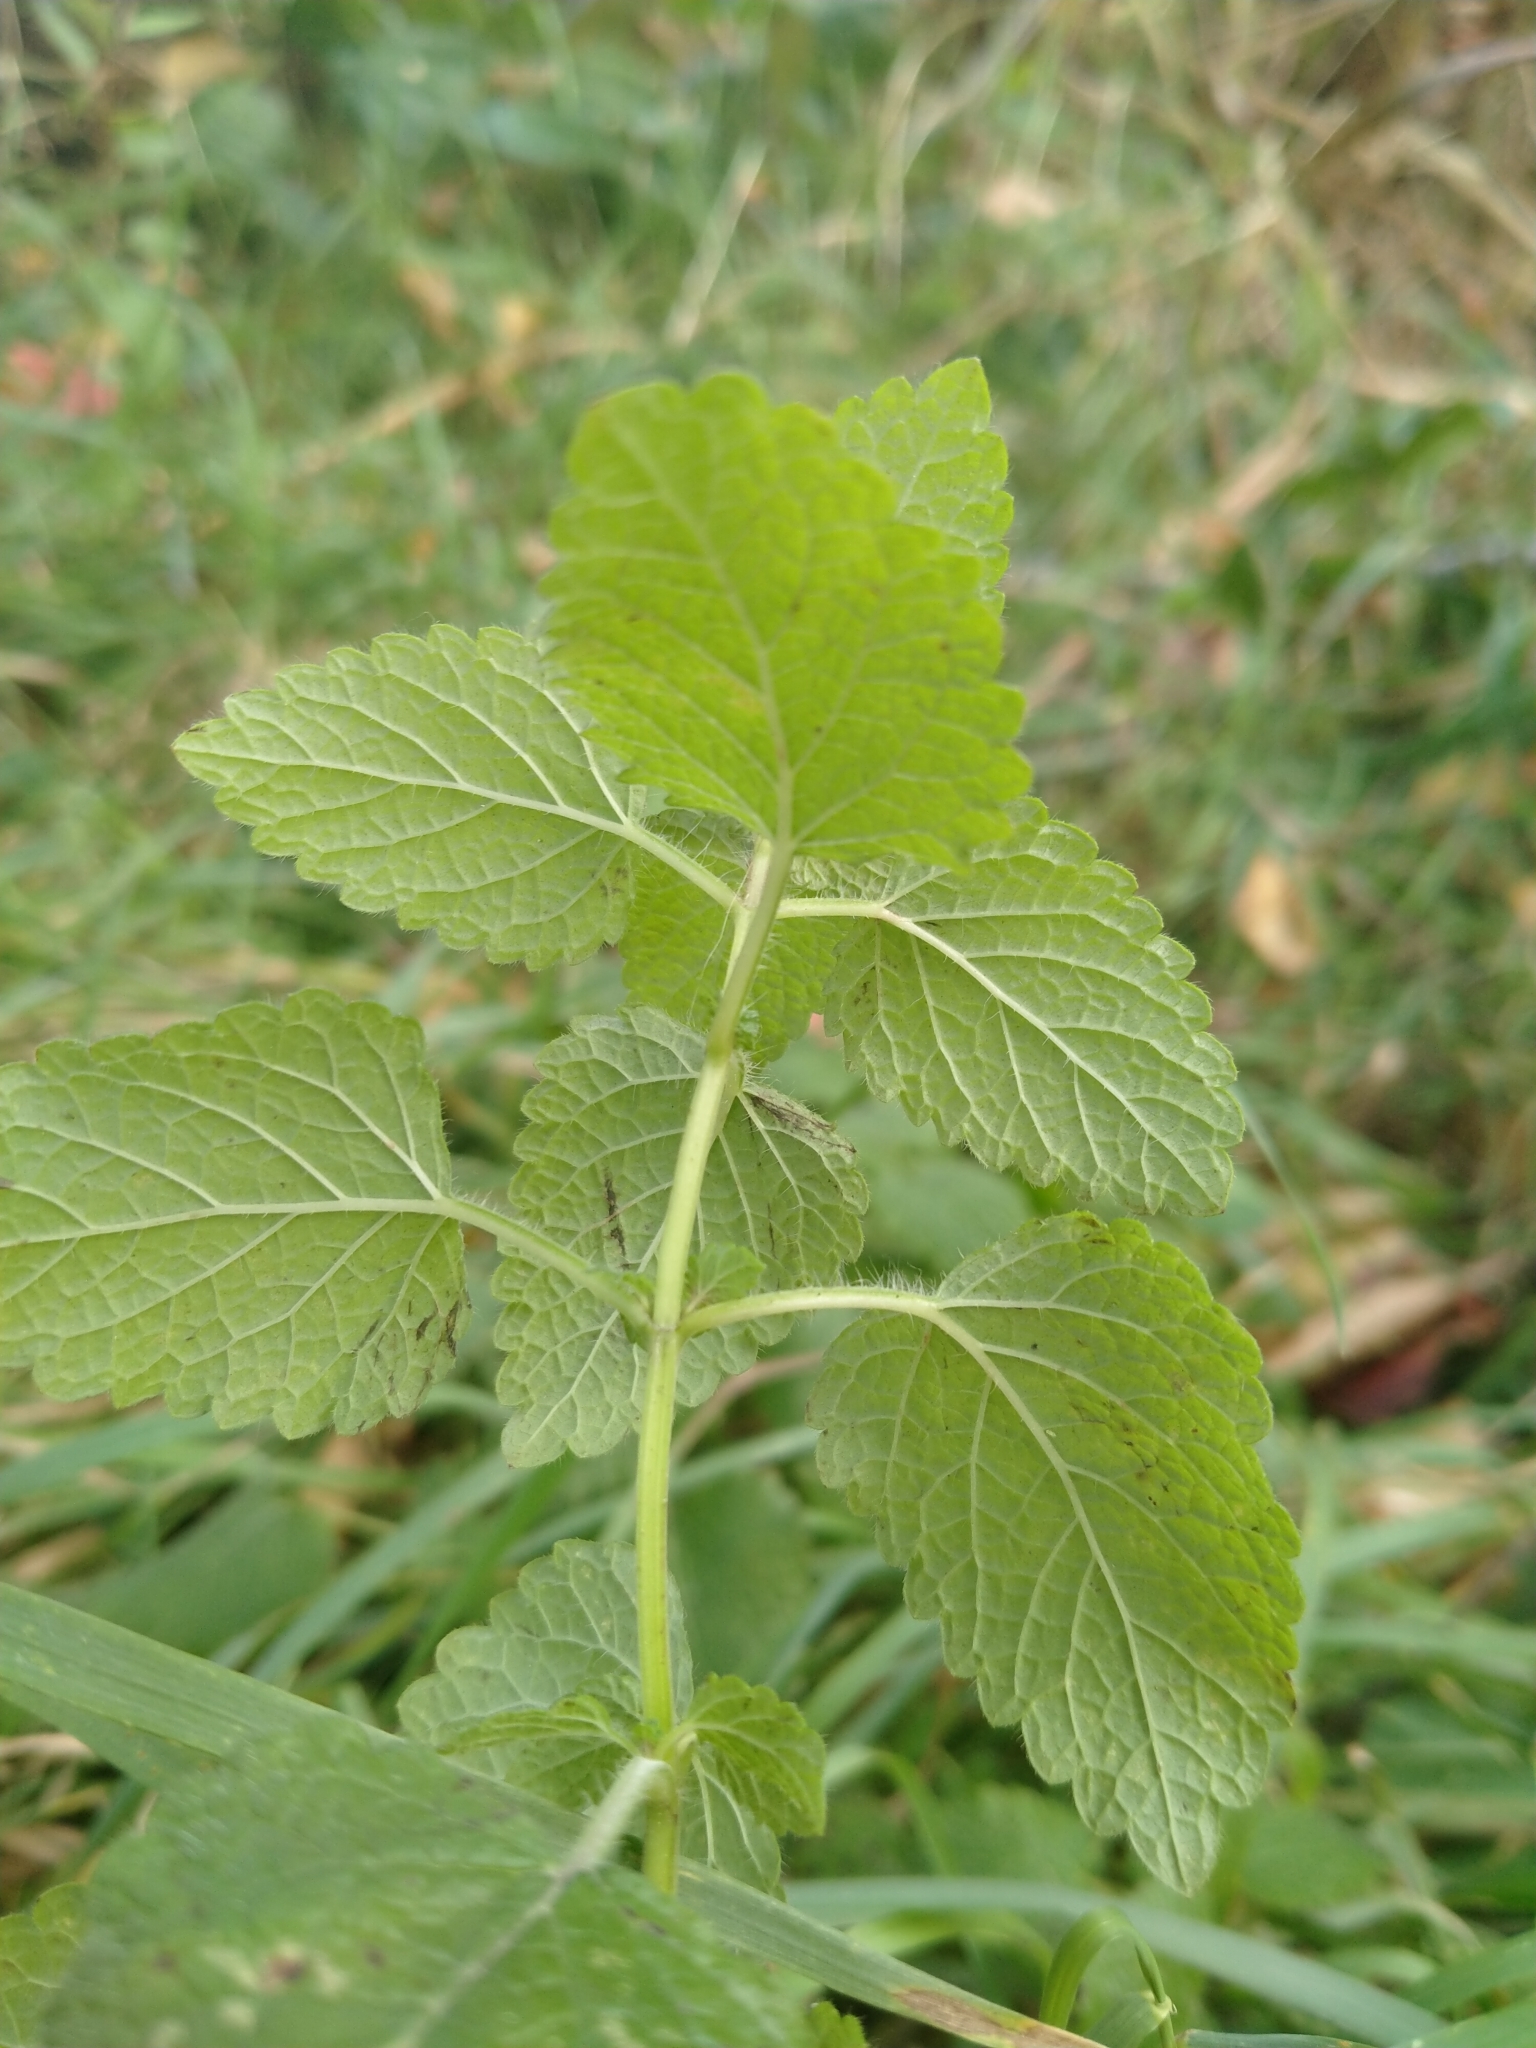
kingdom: Plantae
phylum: Tracheophyta
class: Magnoliopsida
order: Lamiales
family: Lamiaceae
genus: Melissa
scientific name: Melissa officinalis
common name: Balm
